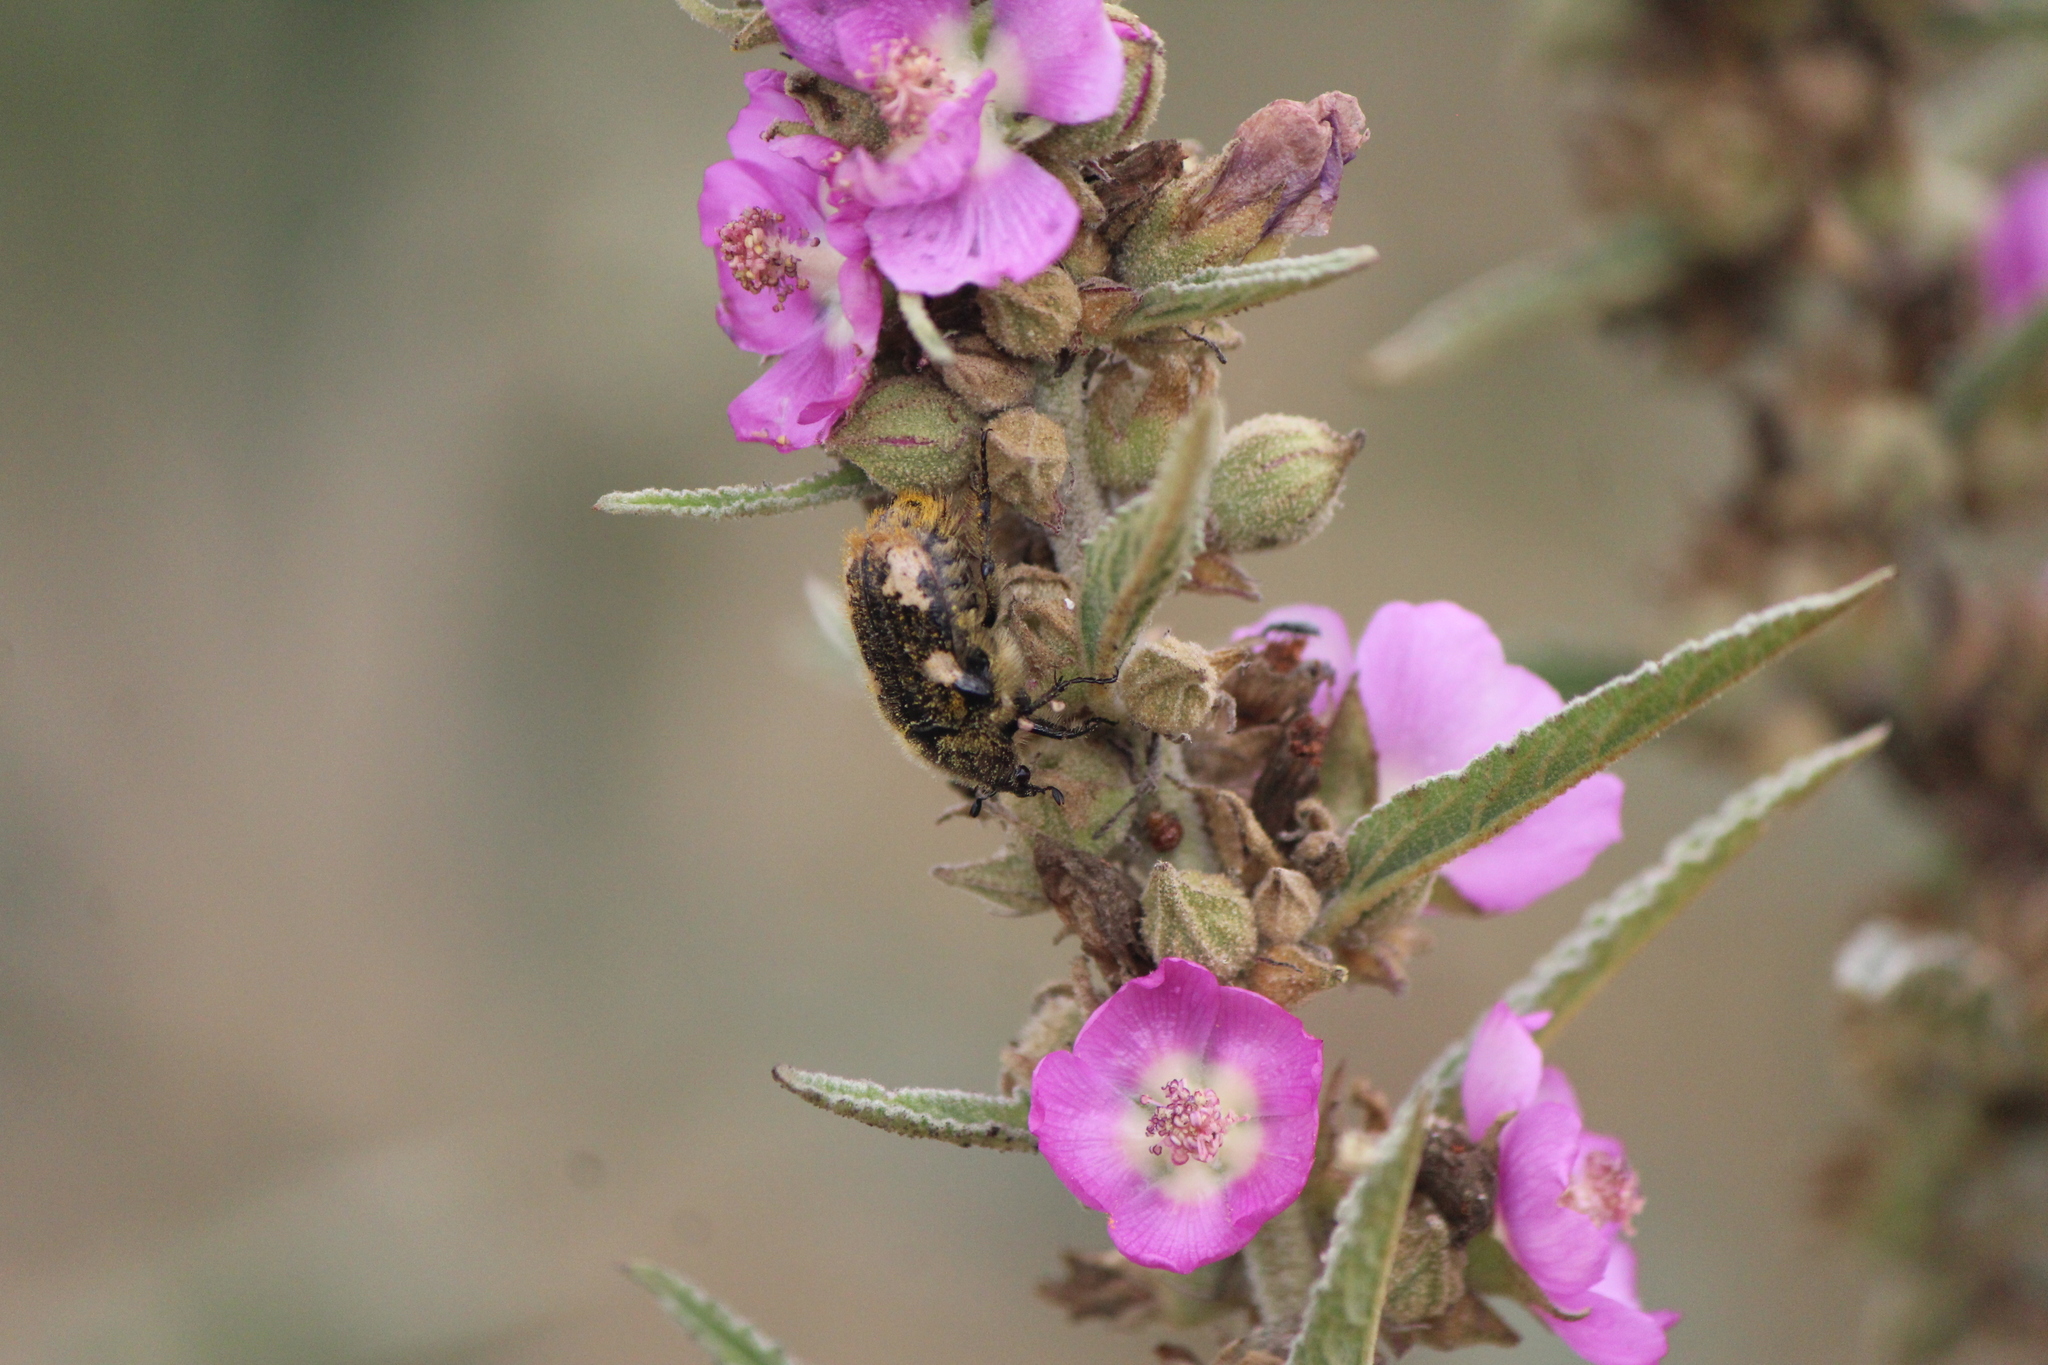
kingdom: Animalia
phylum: Arthropoda
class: Insecta
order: Coleoptera
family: Scarabaeidae
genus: Euphoria
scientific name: Euphoria basalis
